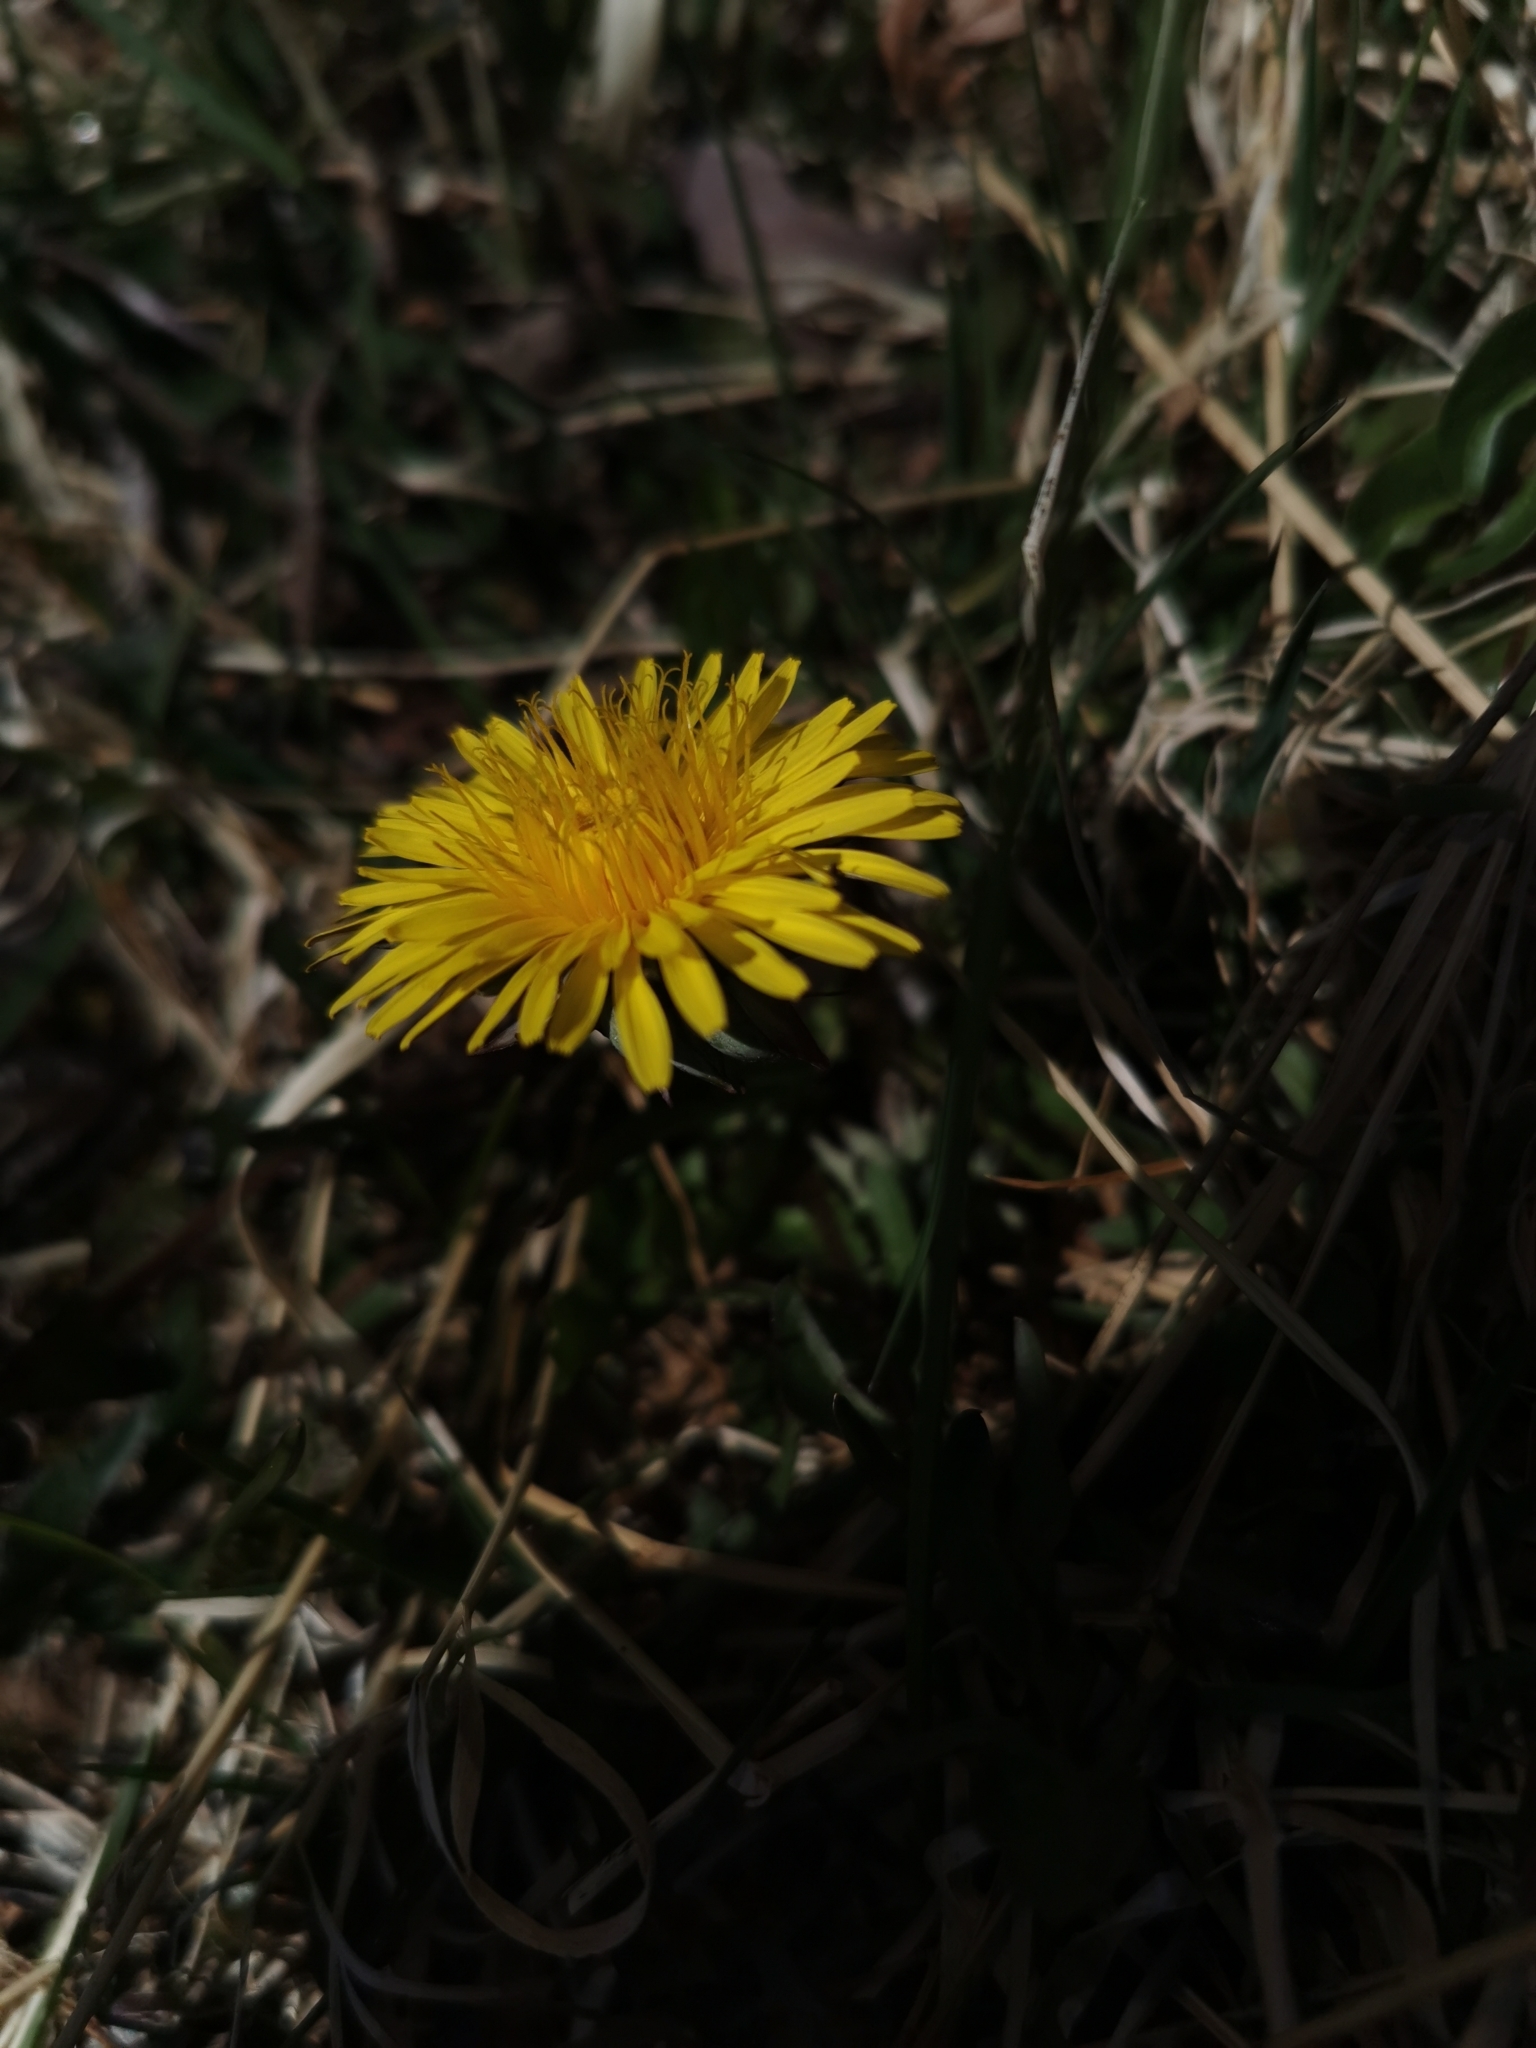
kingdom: Plantae
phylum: Tracheophyta
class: Magnoliopsida
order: Asterales
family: Asteraceae
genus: Taraxacum
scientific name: Taraxacum officinale
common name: Common dandelion
